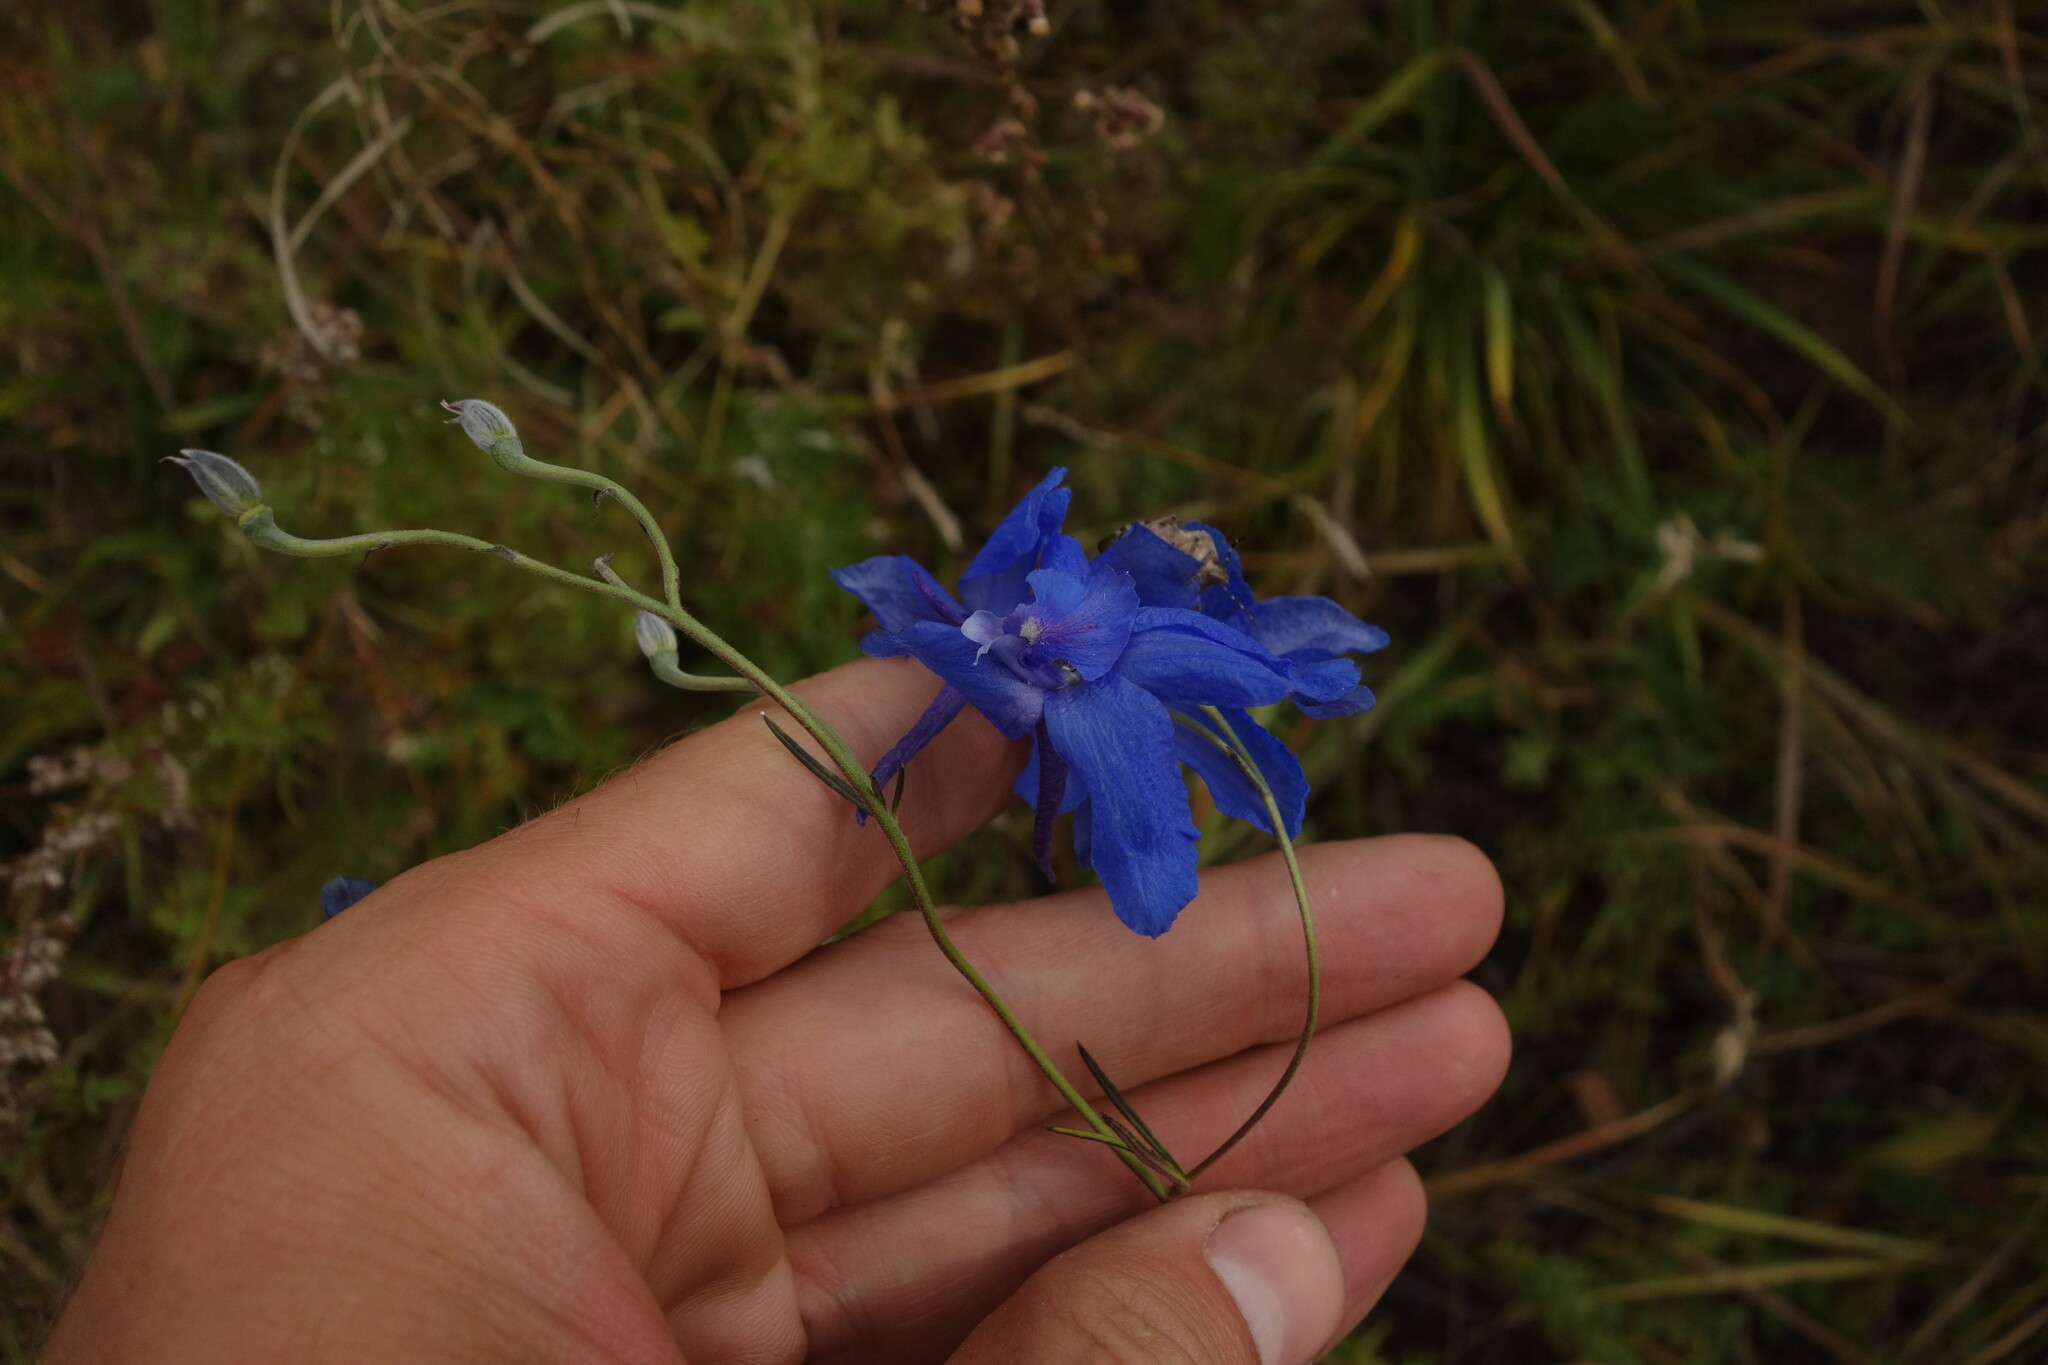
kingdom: Plantae
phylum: Tracheophyta
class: Magnoliopsida
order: Ranunculales
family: Ranunculaceae
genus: Delphinium
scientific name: Delphinium grandiflorum
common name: Siberian larkspur
